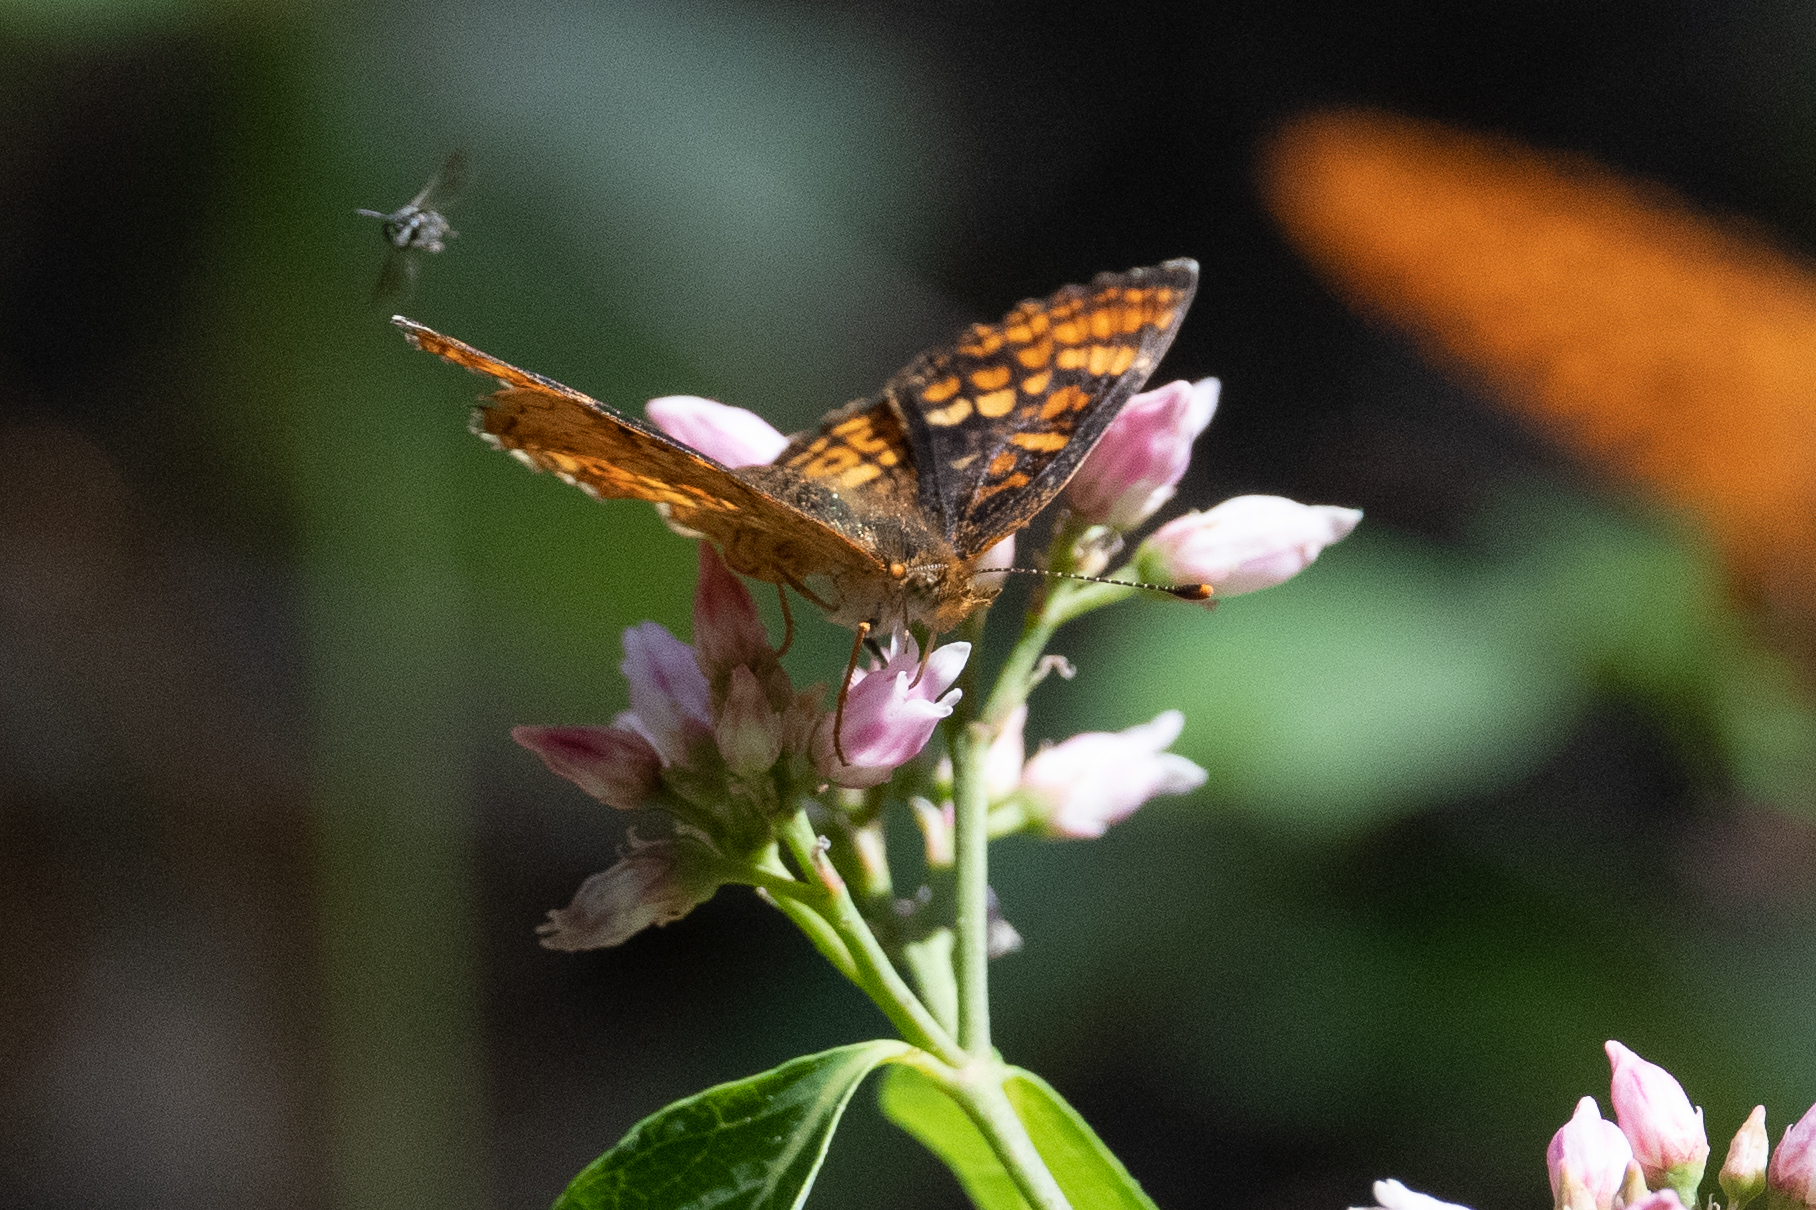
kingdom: Animalia
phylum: Arthropoda
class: Insecta
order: Lepidoptera
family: Nymphalidae
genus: Phyciodes
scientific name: Phyciodes tharos
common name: Pearl crescent
